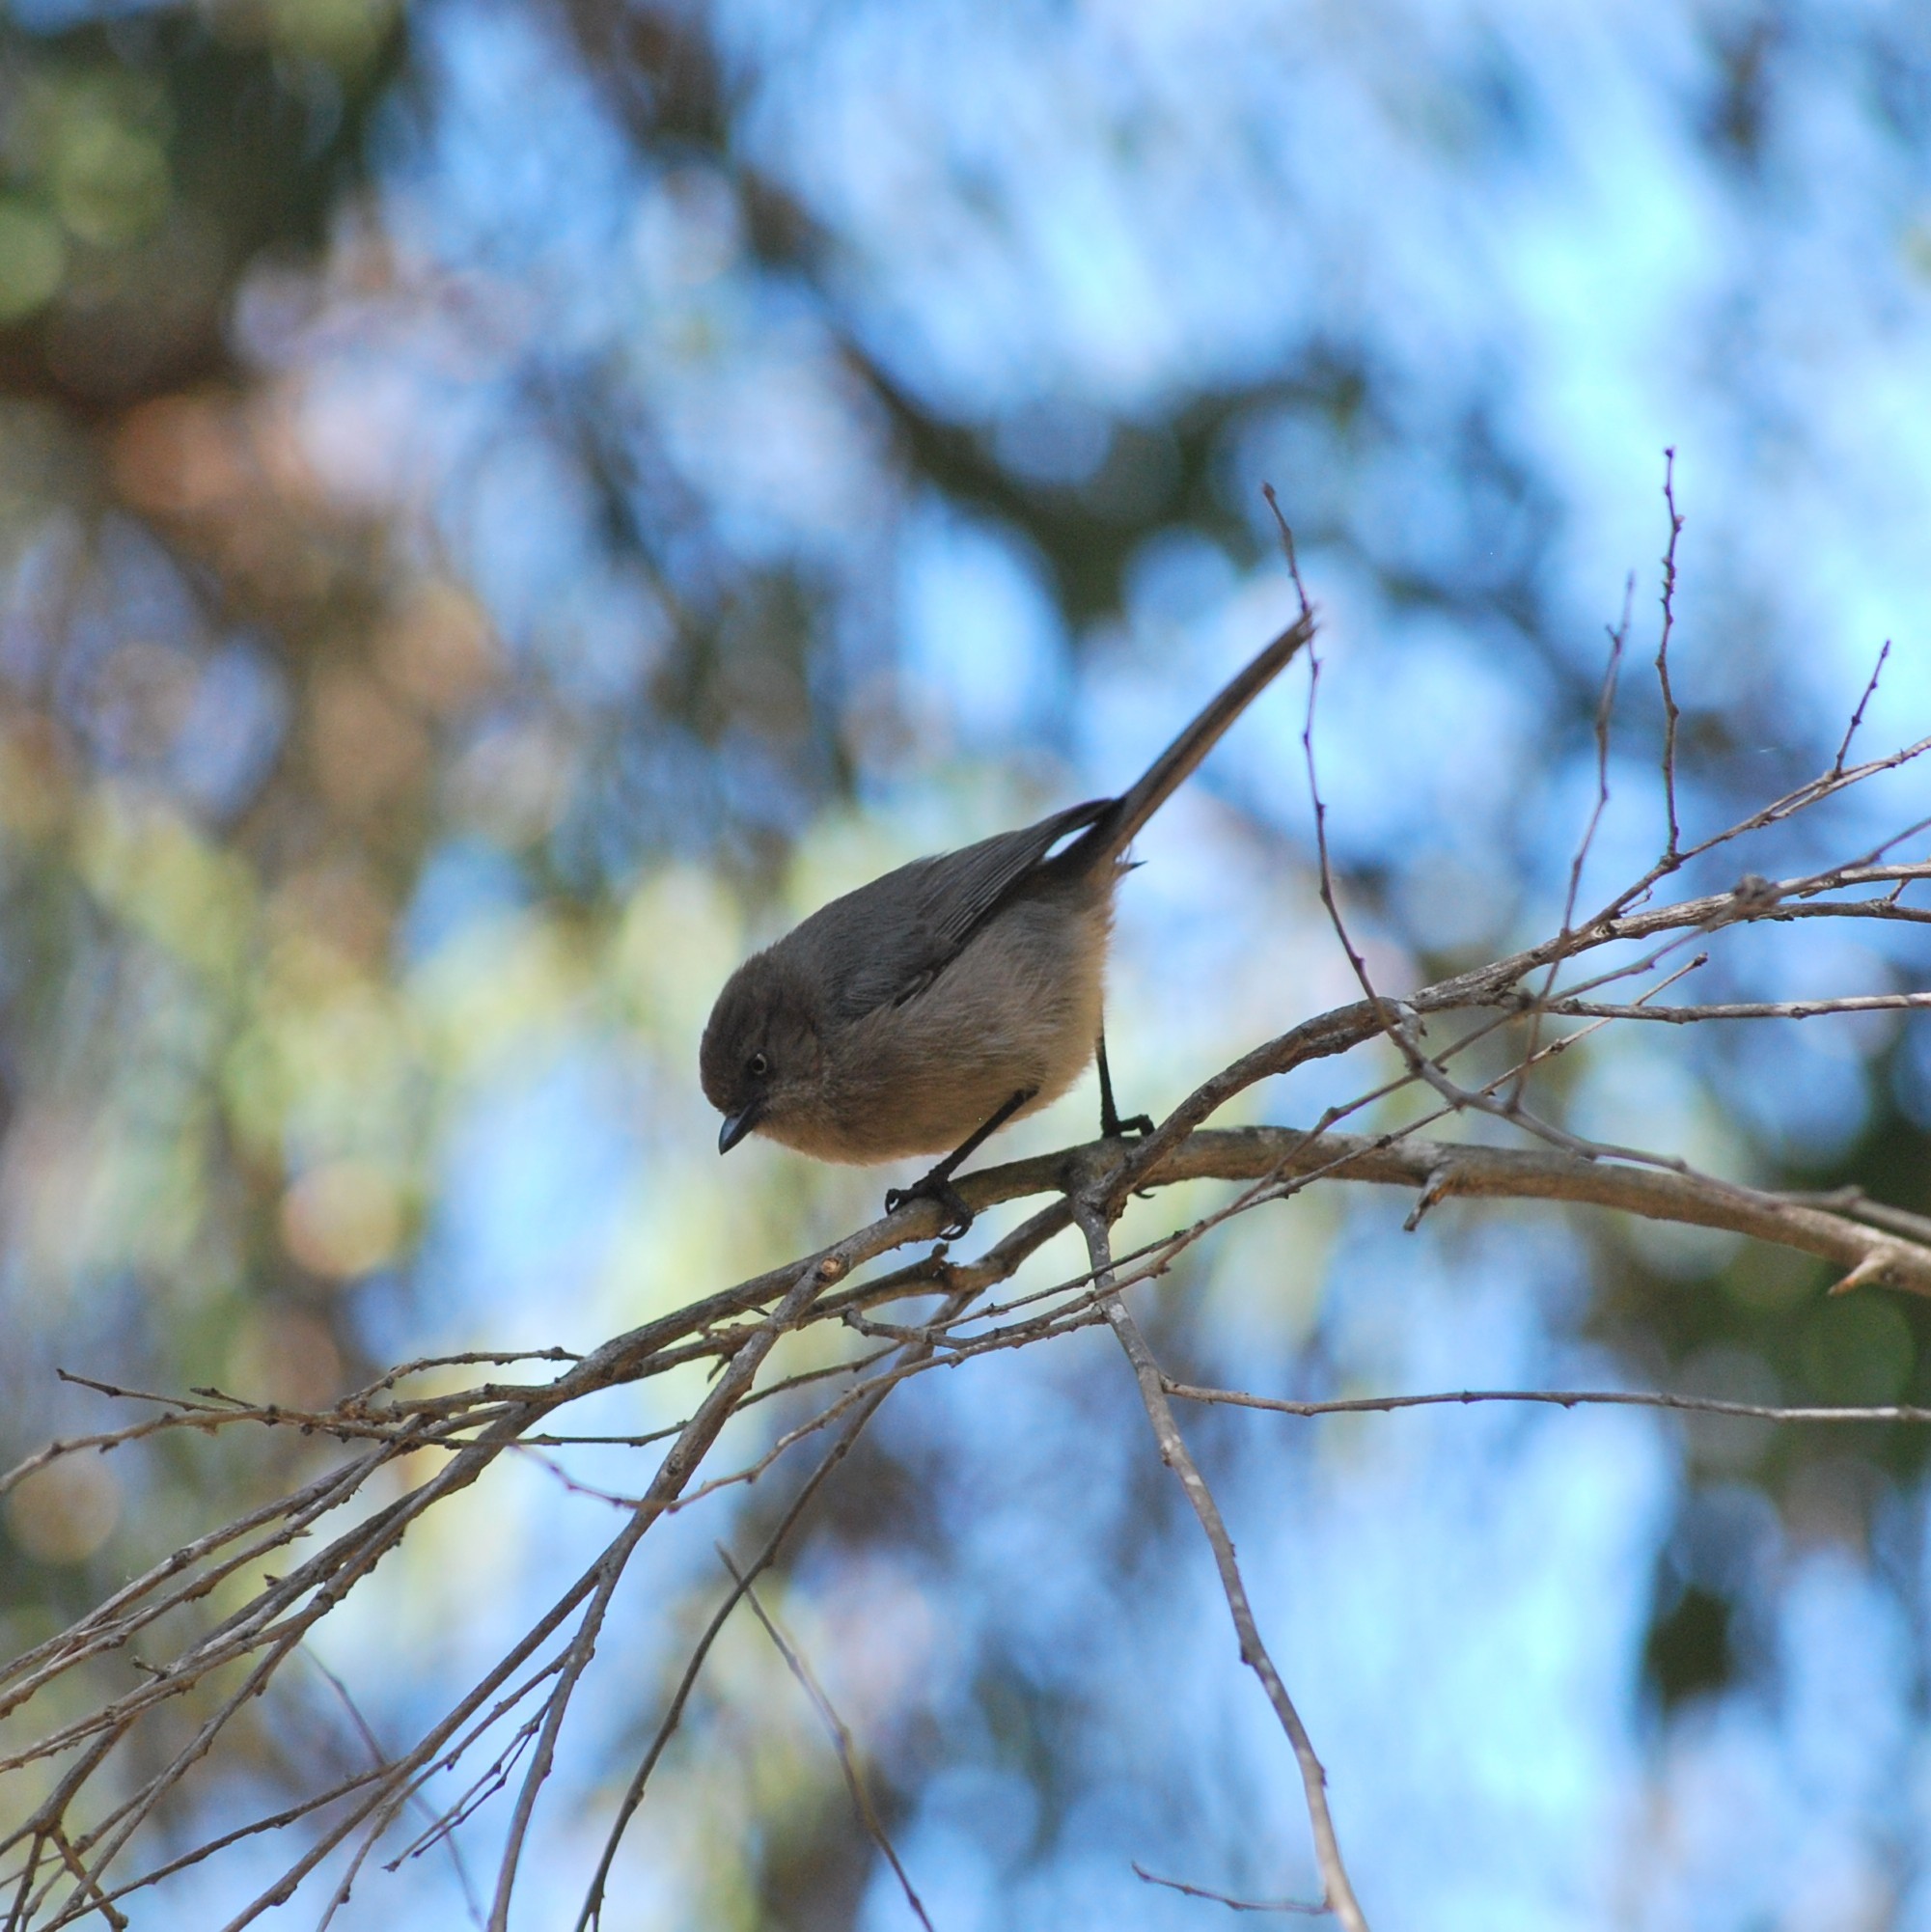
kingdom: Animalia
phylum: Chordata
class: Aves
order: Passeriformes
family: Aegithalidae
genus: Psaltriparus
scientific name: Psaltriparus minimus
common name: American bushtit
